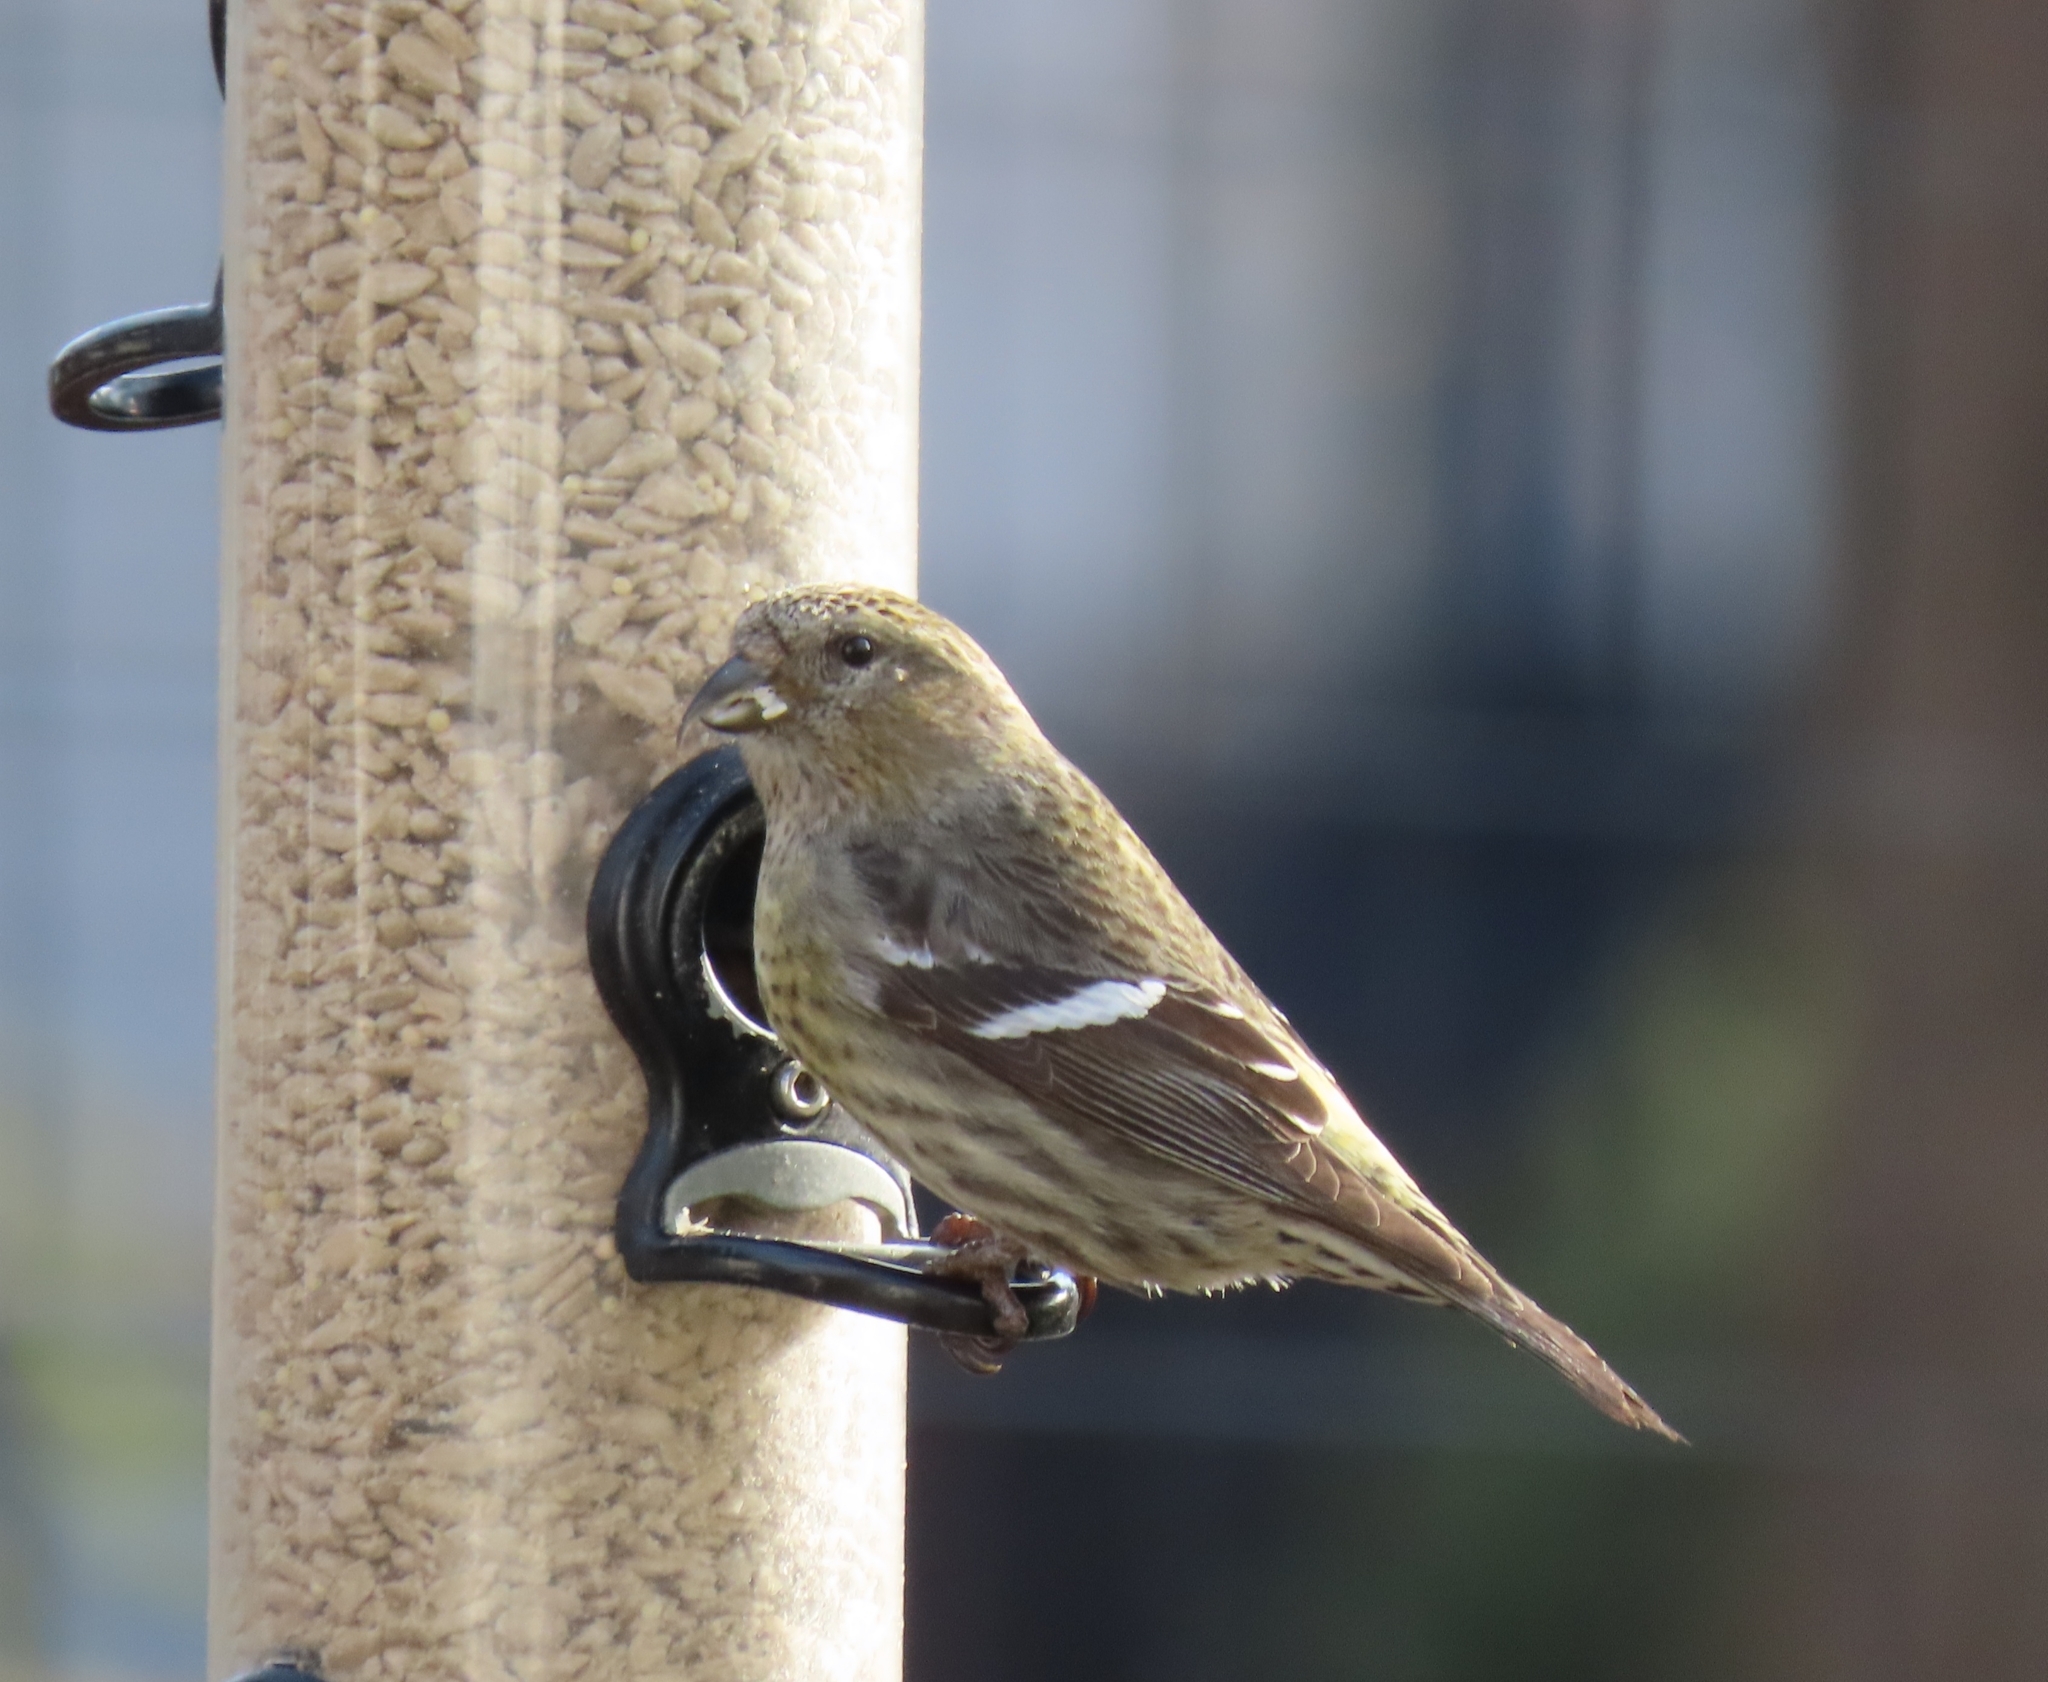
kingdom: Animalia
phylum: Chordata
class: Aves
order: Passeriformes
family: Fringillidae
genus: Loxia
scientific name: Loxia leucoptera
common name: Two-barred crossbill
